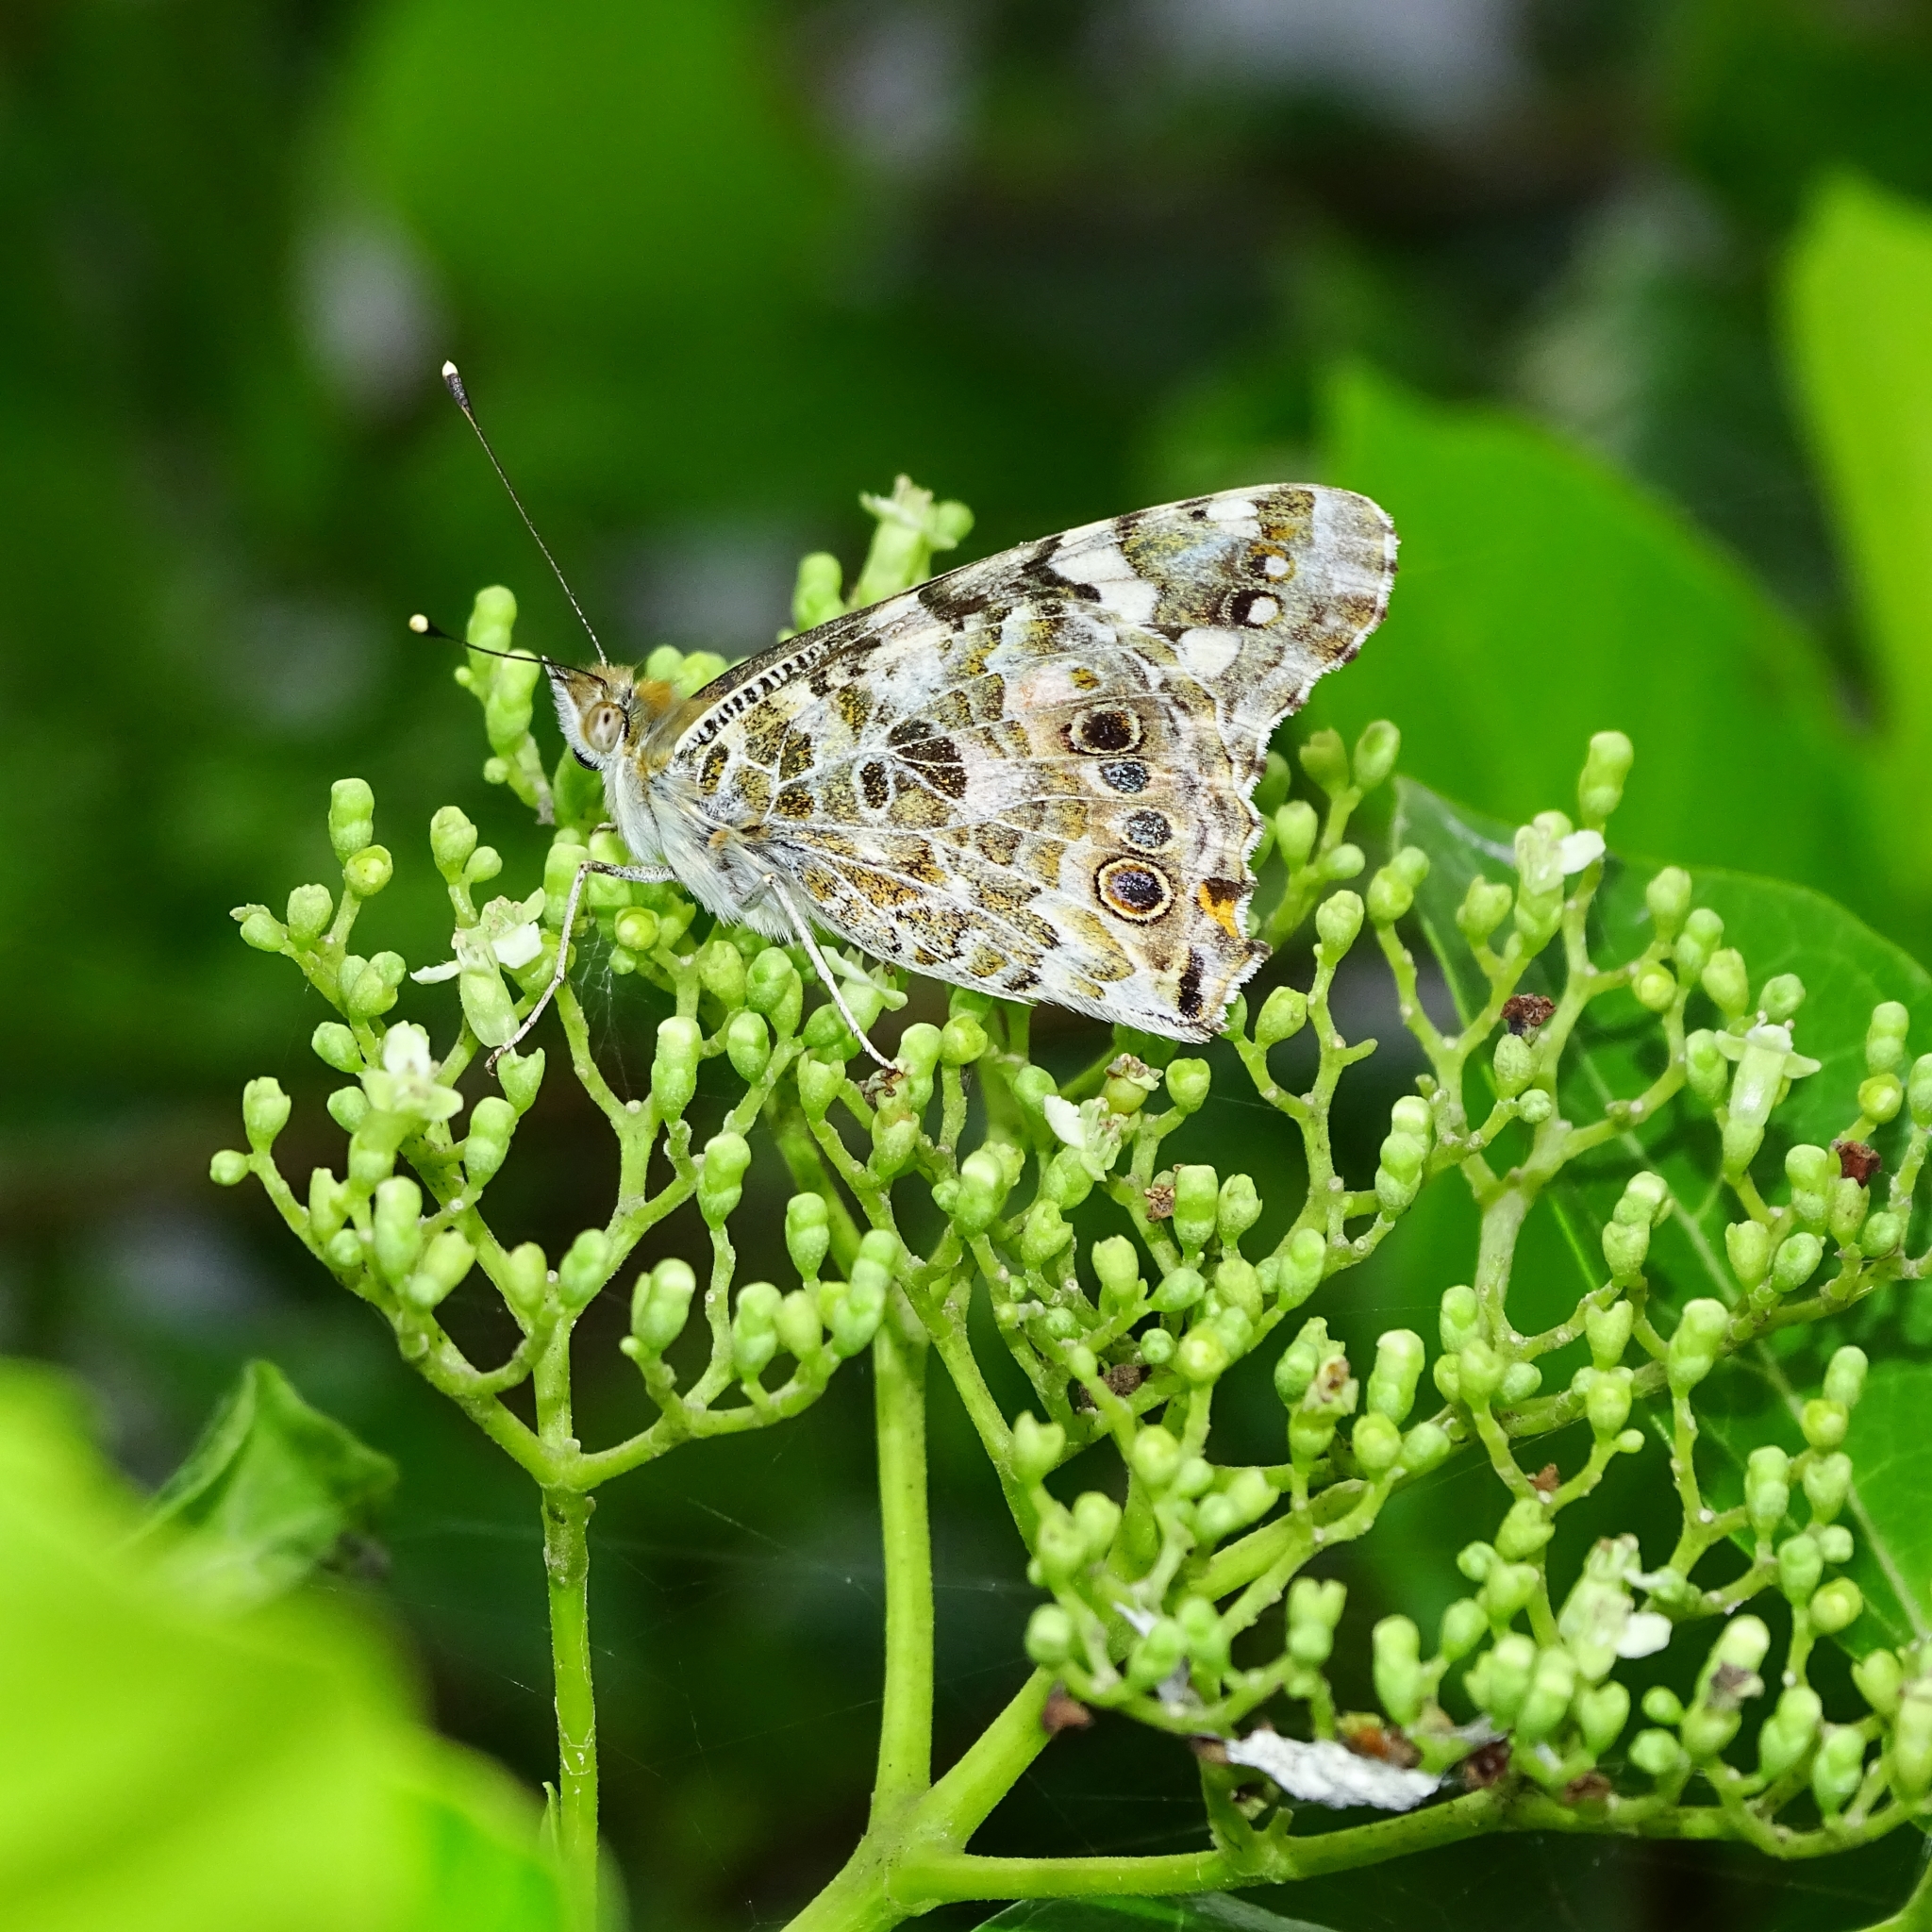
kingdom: Animalia
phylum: Arthropoda
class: Insecta
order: Lepidoptera
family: Nymphalidae
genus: Vanessa
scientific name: Vanessa cardui
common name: Painted lady
